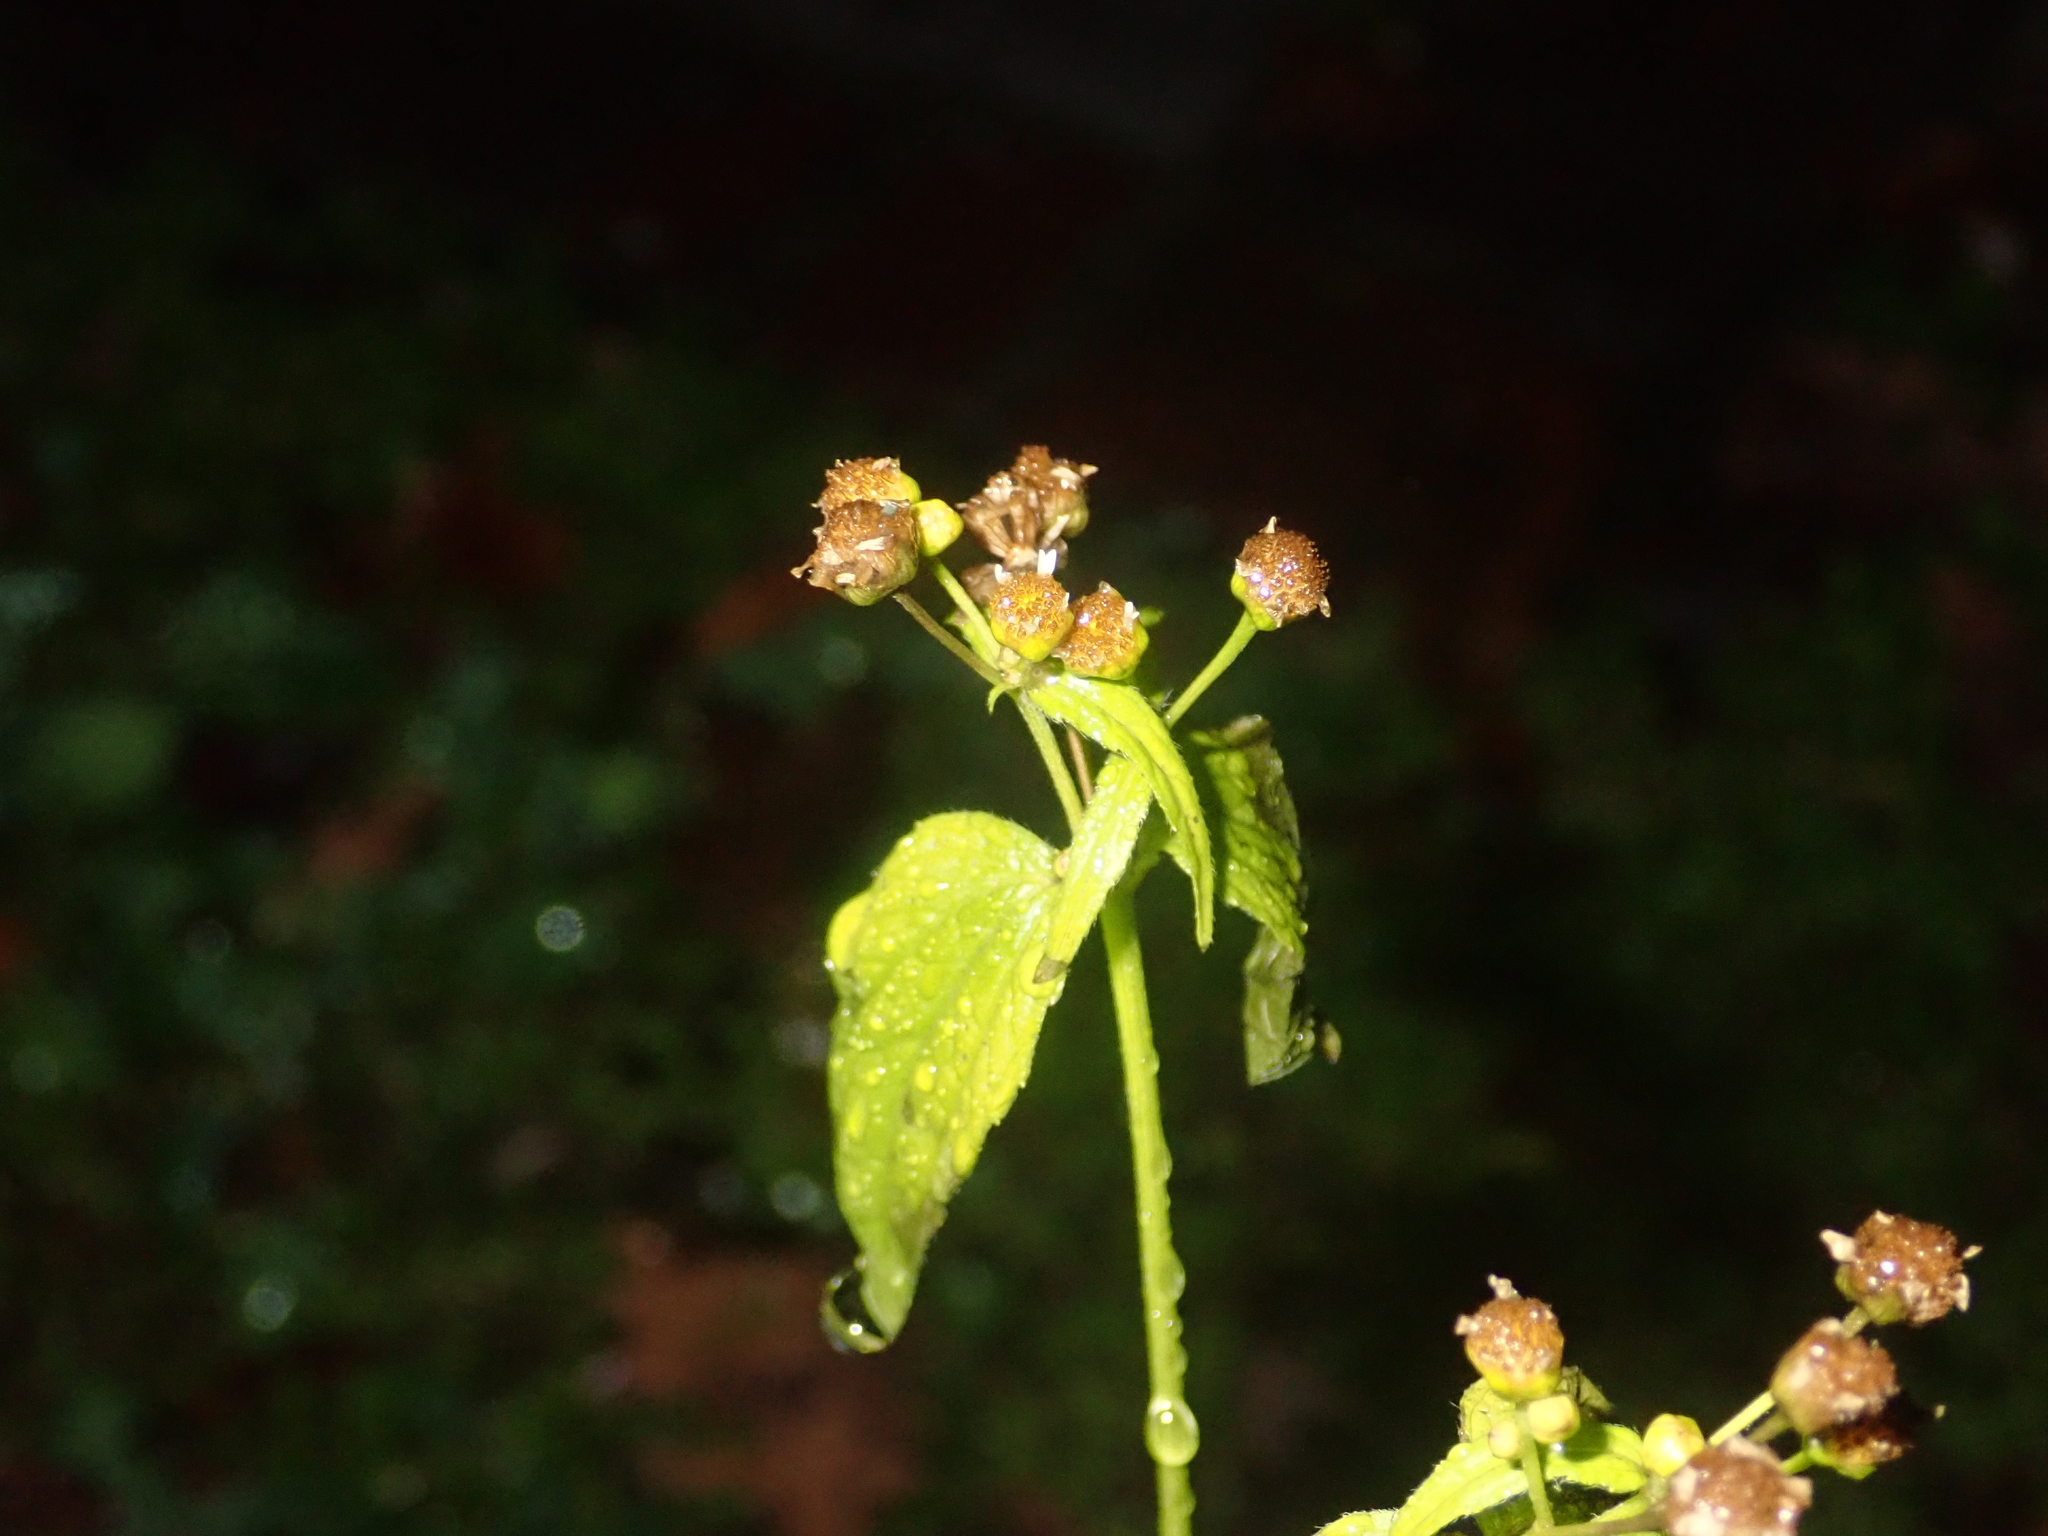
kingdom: Plantae
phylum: Tracheophyta
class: Magnoliopsida
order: Asterales
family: Asteraceae
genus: Galinsoga
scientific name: Galinsoga parviflora
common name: Gallant soldier
